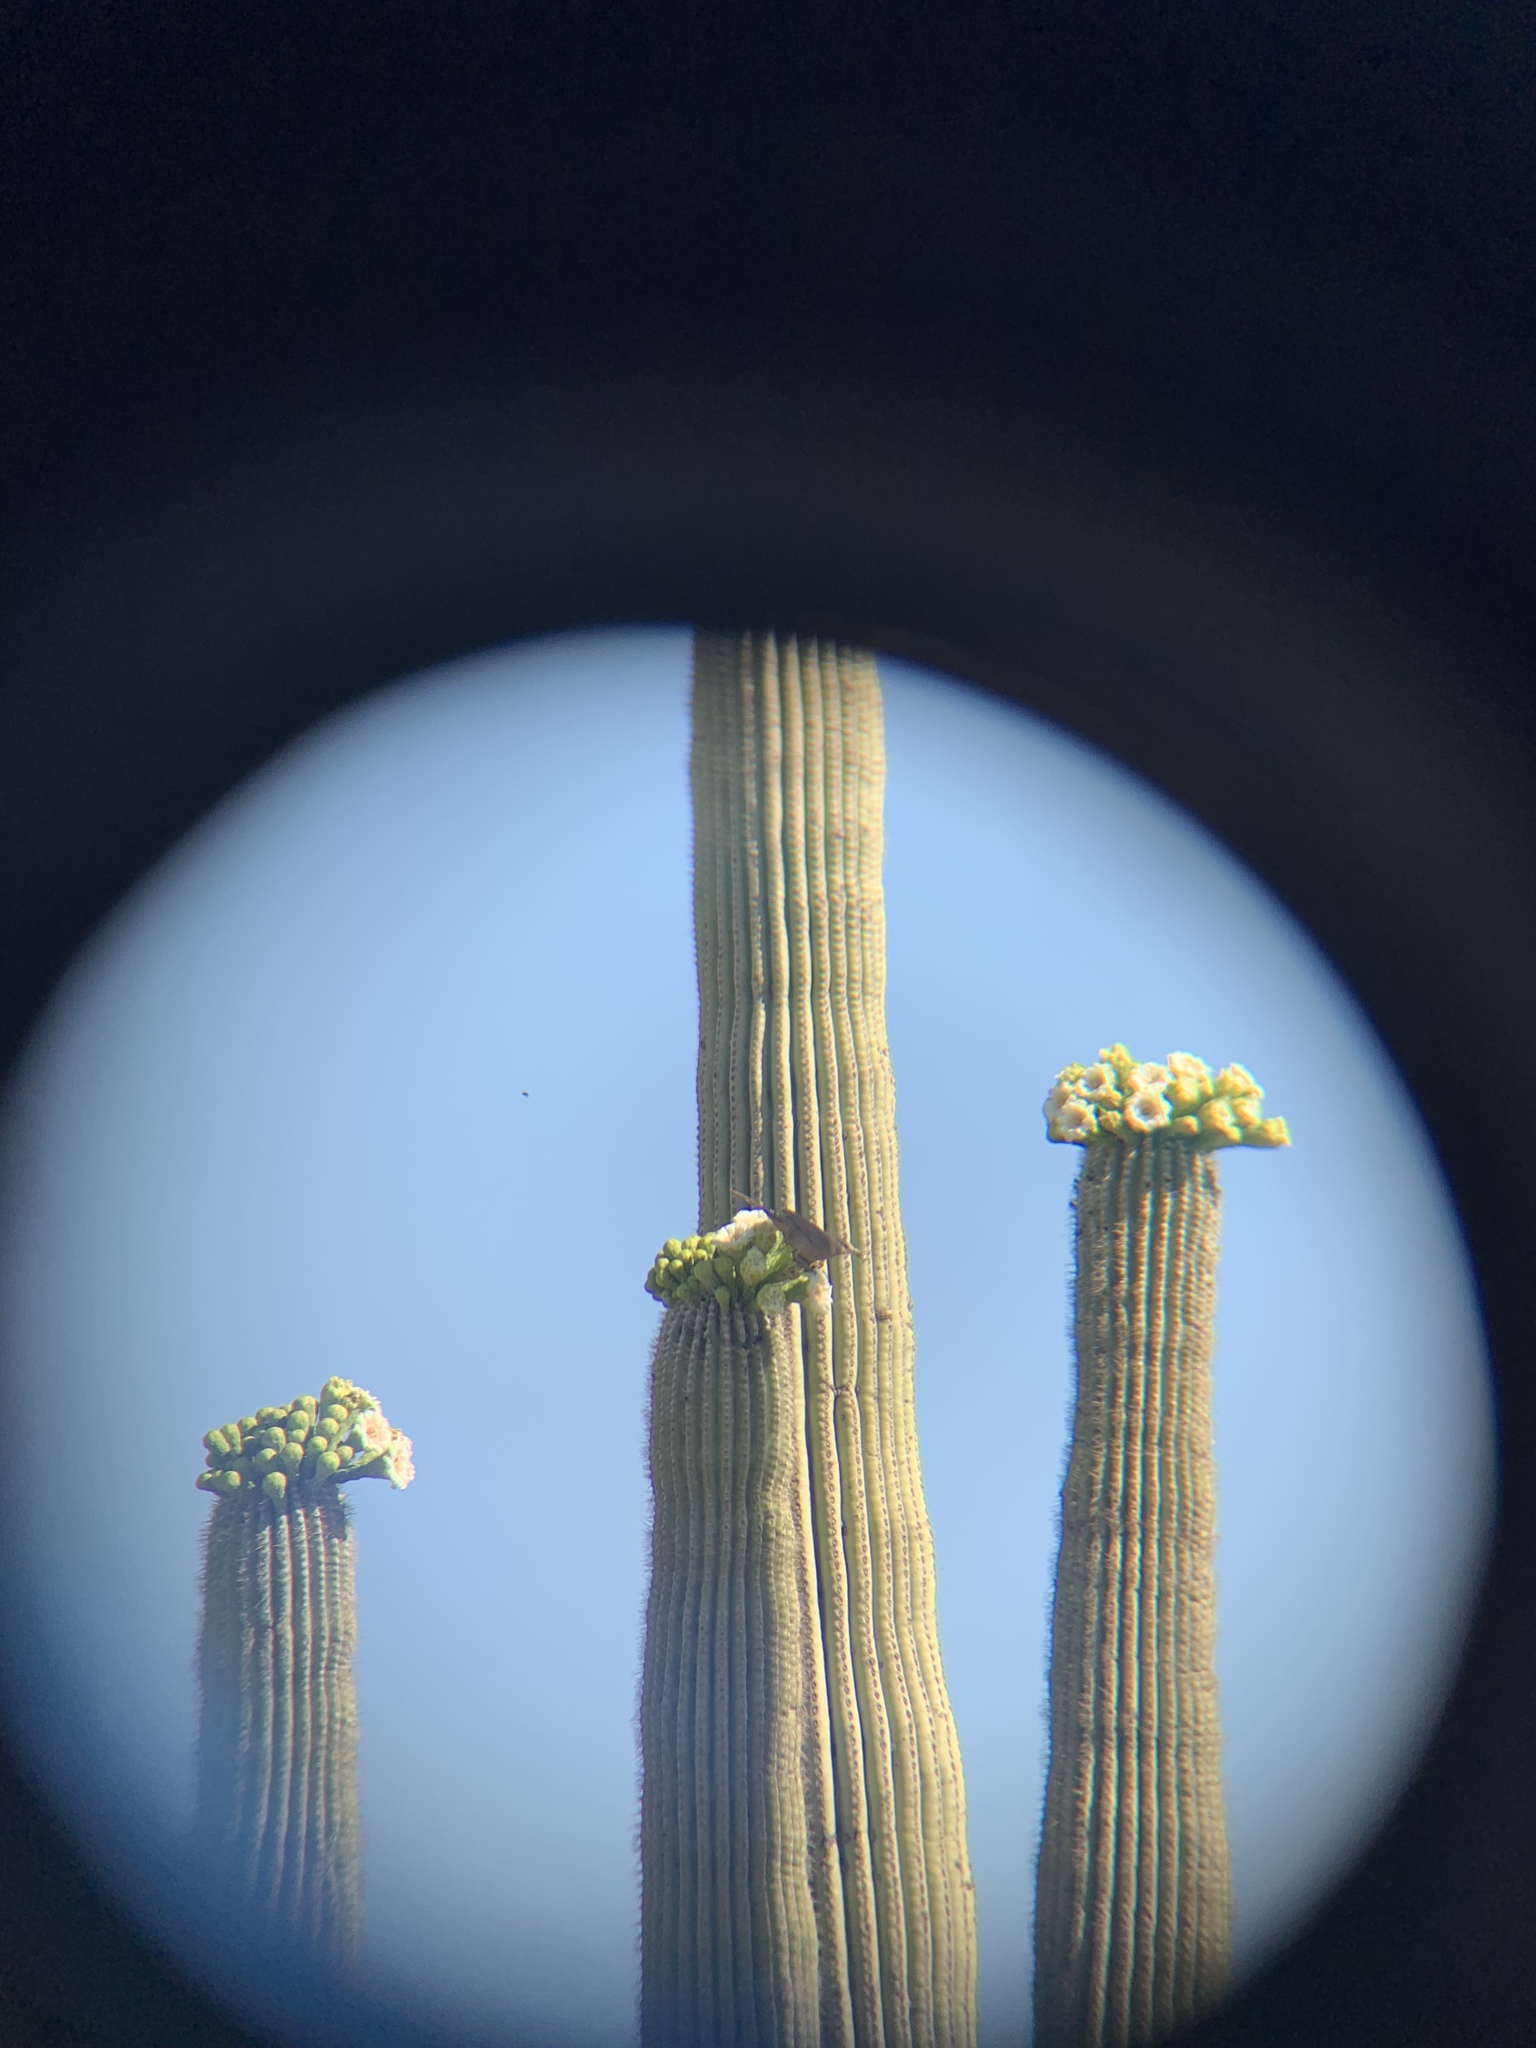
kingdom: Animalia
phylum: Chordata
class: Aves
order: Passeriformes
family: Mimidae
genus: Toxostoma
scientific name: Toxostoma curvirostre
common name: Curve-billed thrasher
